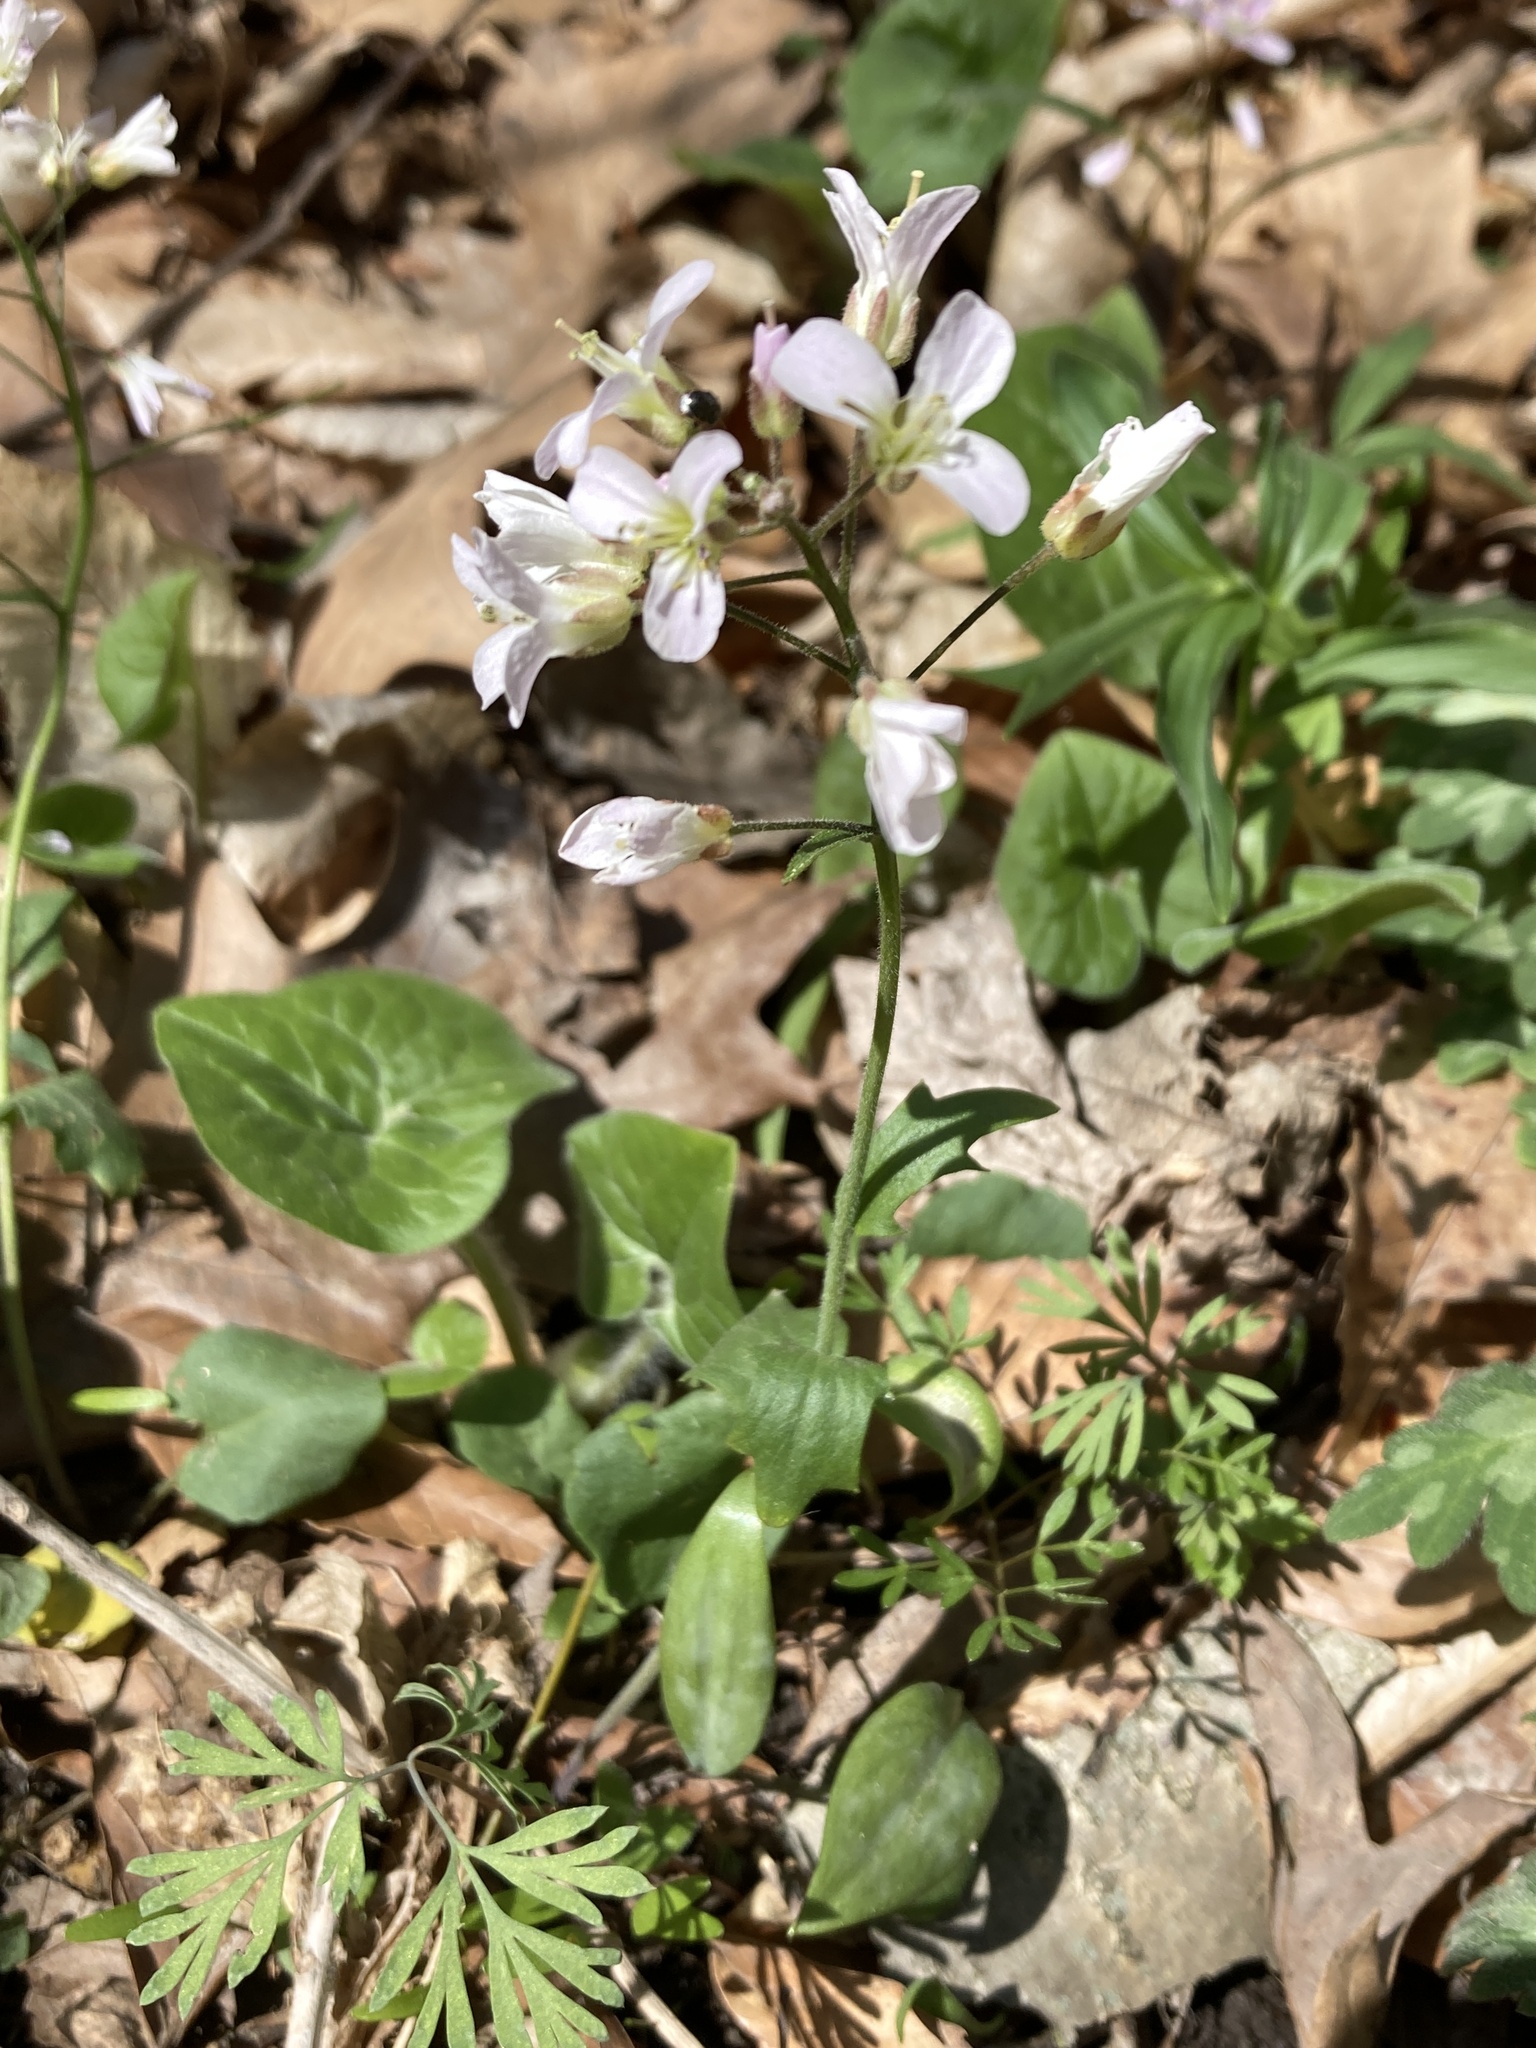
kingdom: Plantae
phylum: Tracheophyta
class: Magnoliopsida
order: Brassicales
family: Brassicaceae
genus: Cardamine
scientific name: Cardamine douglassii
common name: Purple cress
